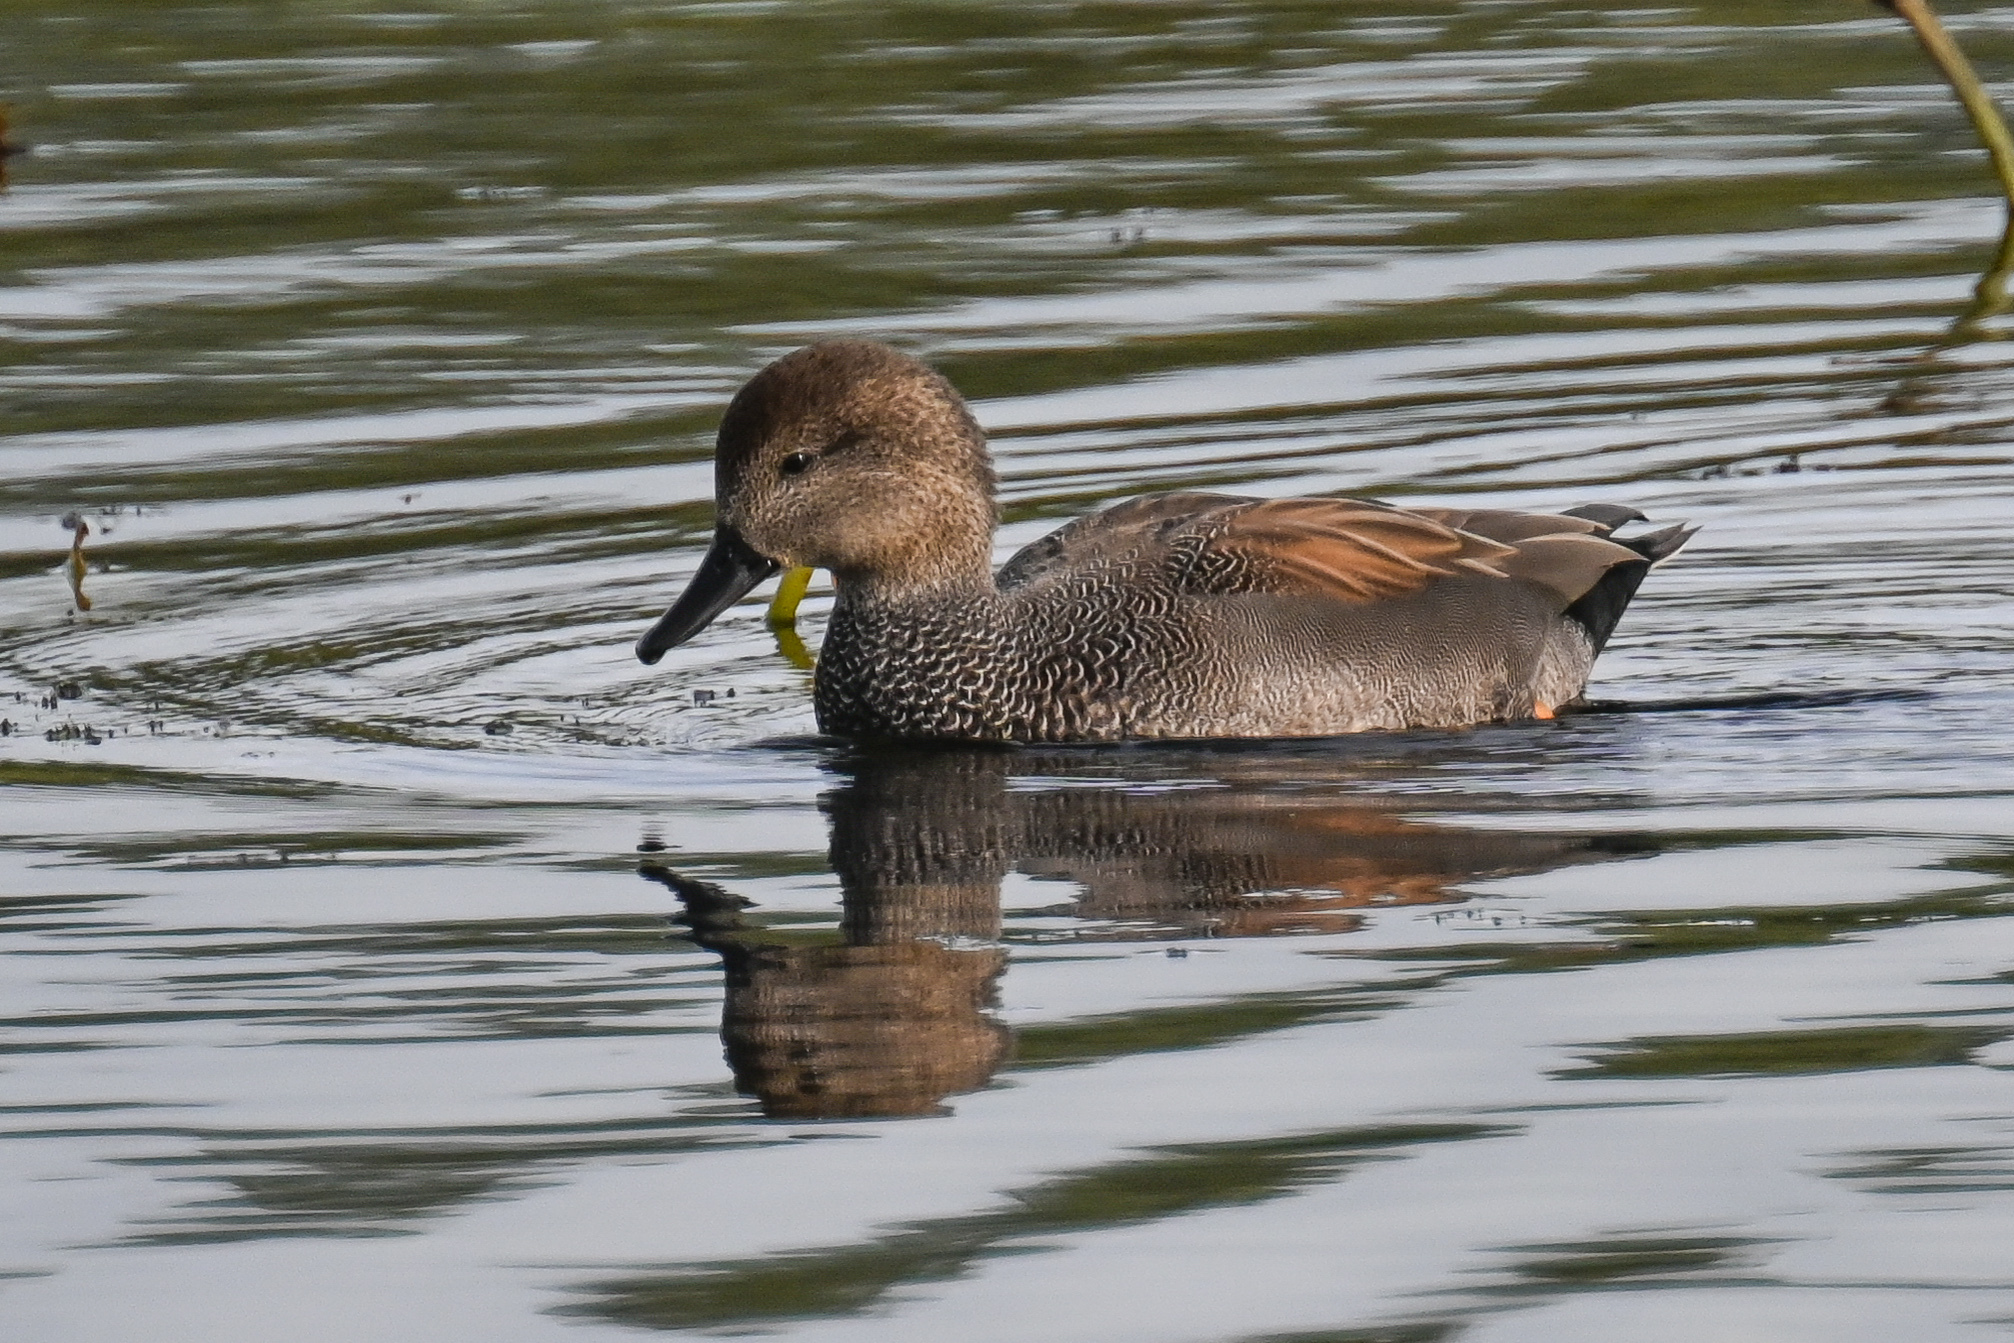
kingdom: Animalia
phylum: Chordata
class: Aves
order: Anseriformes
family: Anatidae
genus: Mareca
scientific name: Mareca strepera
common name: Gadwall
